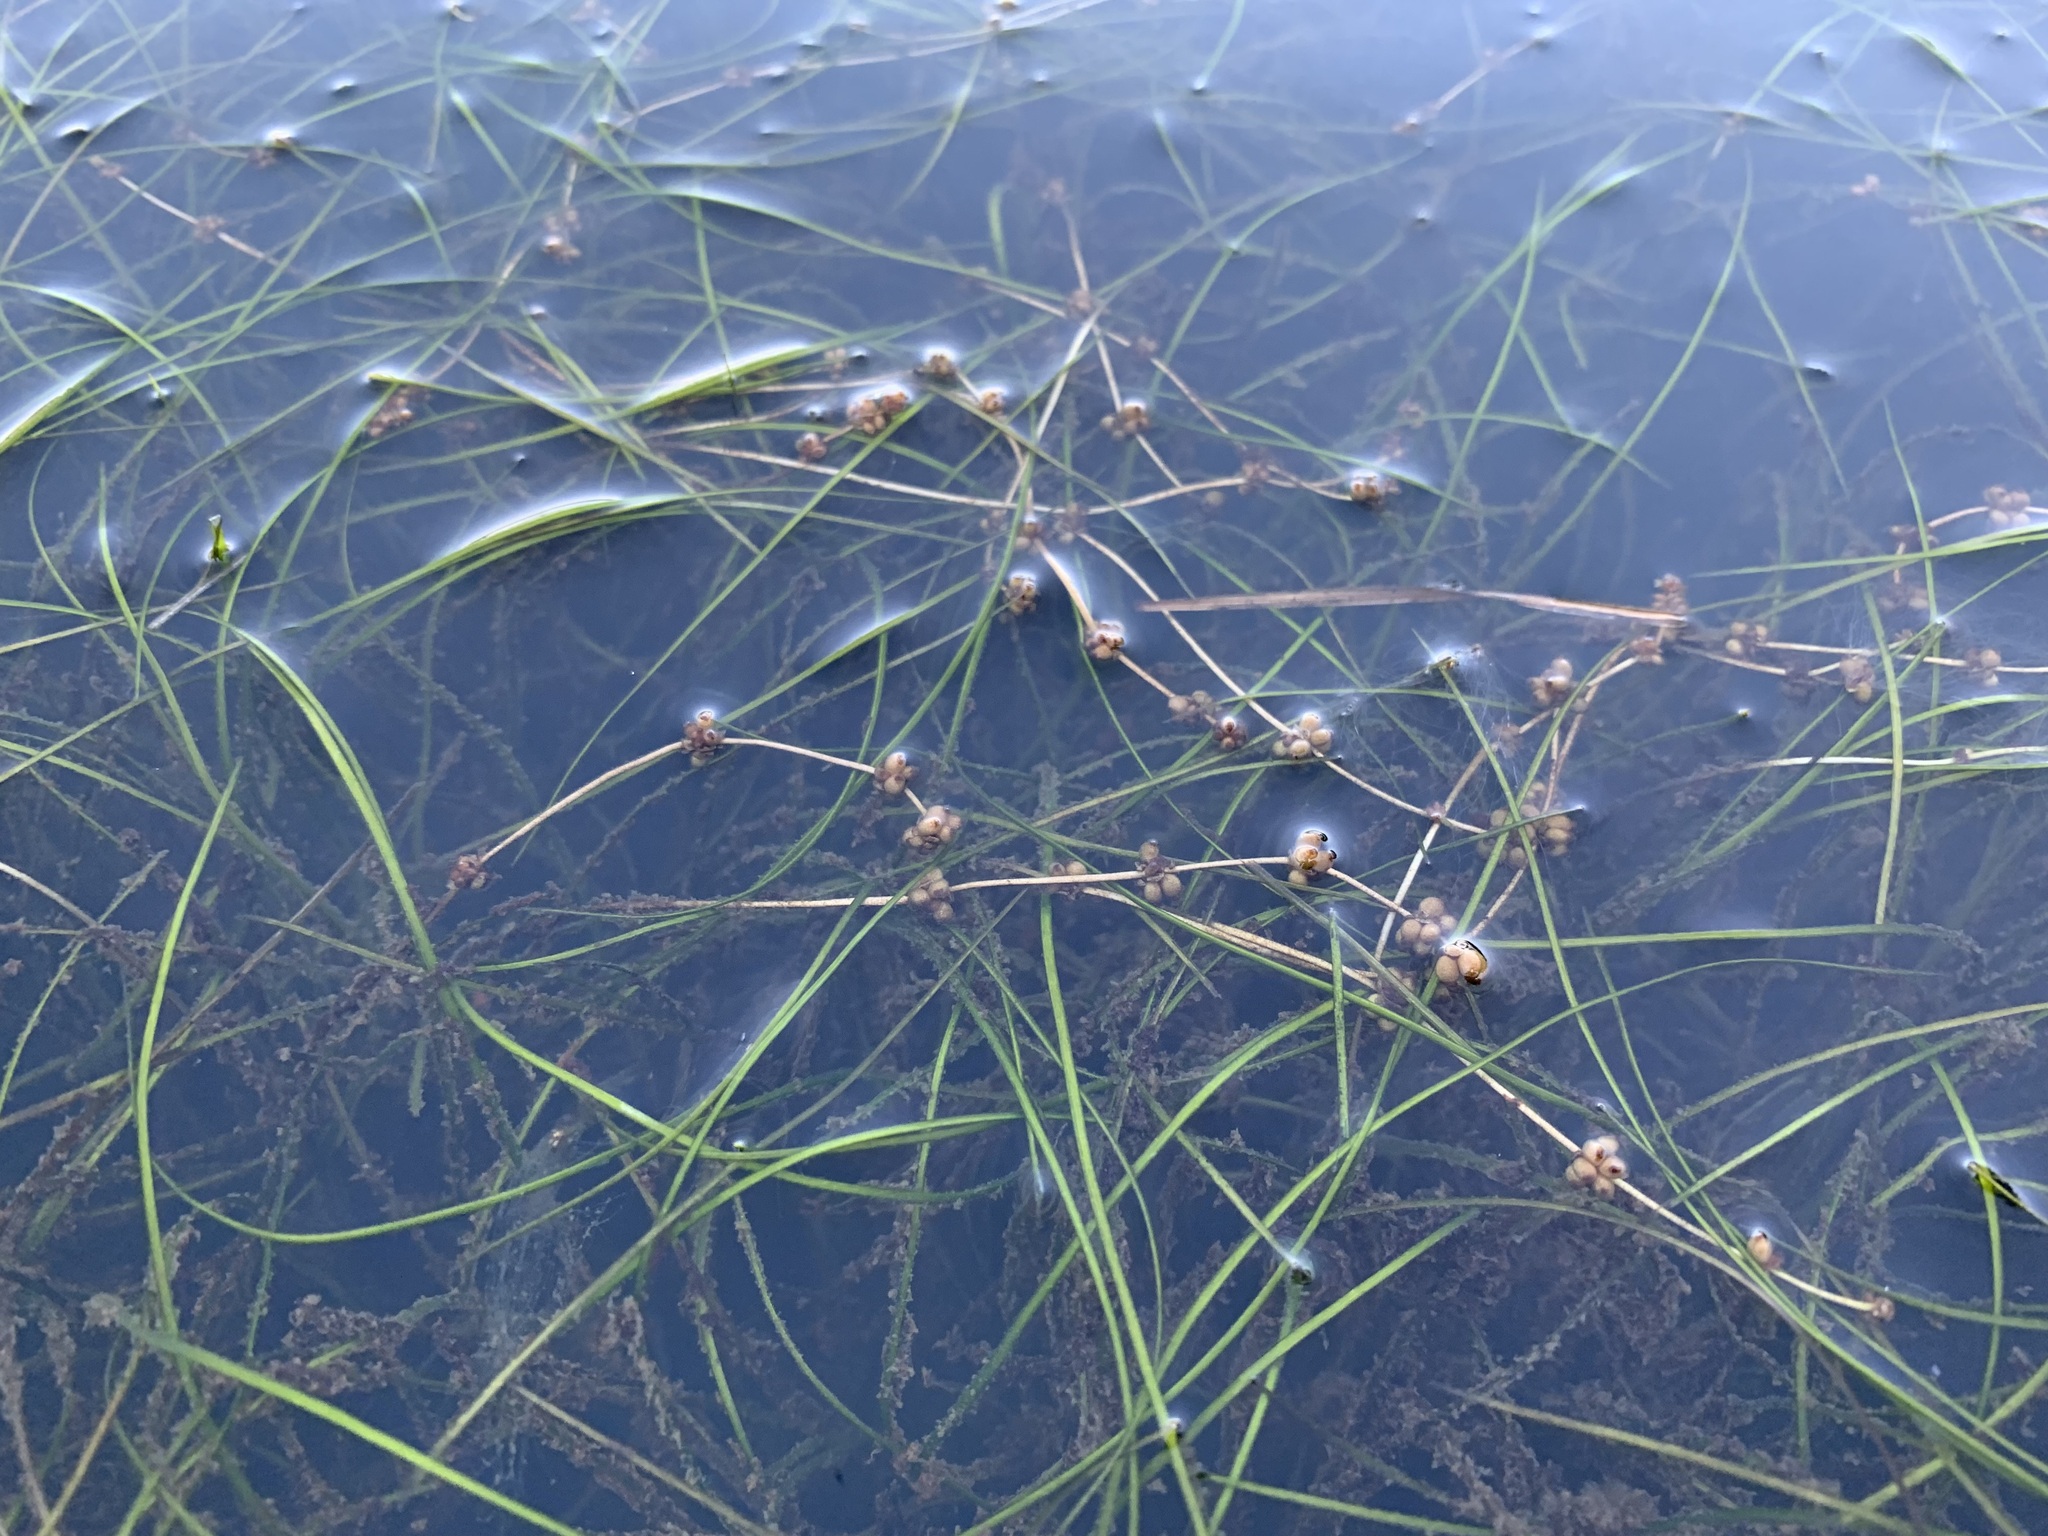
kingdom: Plantae
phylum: Tracheophyta
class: Liliopsida
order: Alismatales
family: Potamogetonaceae
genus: Stuckenia
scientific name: Stuckenia filiformis
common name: Alpine thread-leaved pondweed
